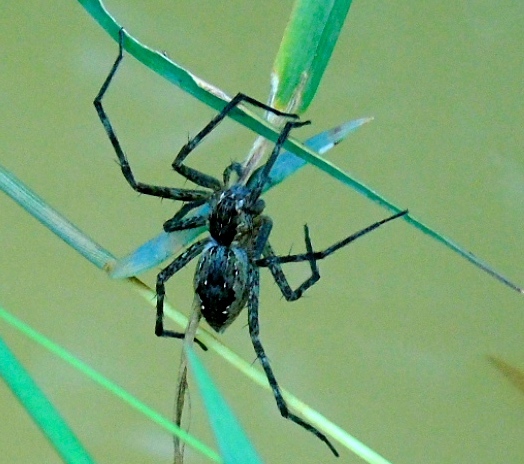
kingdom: Animalia
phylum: Arthropoda
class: Arachnida
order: Araneae
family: Pisauridae
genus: Tinus
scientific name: Tinus
